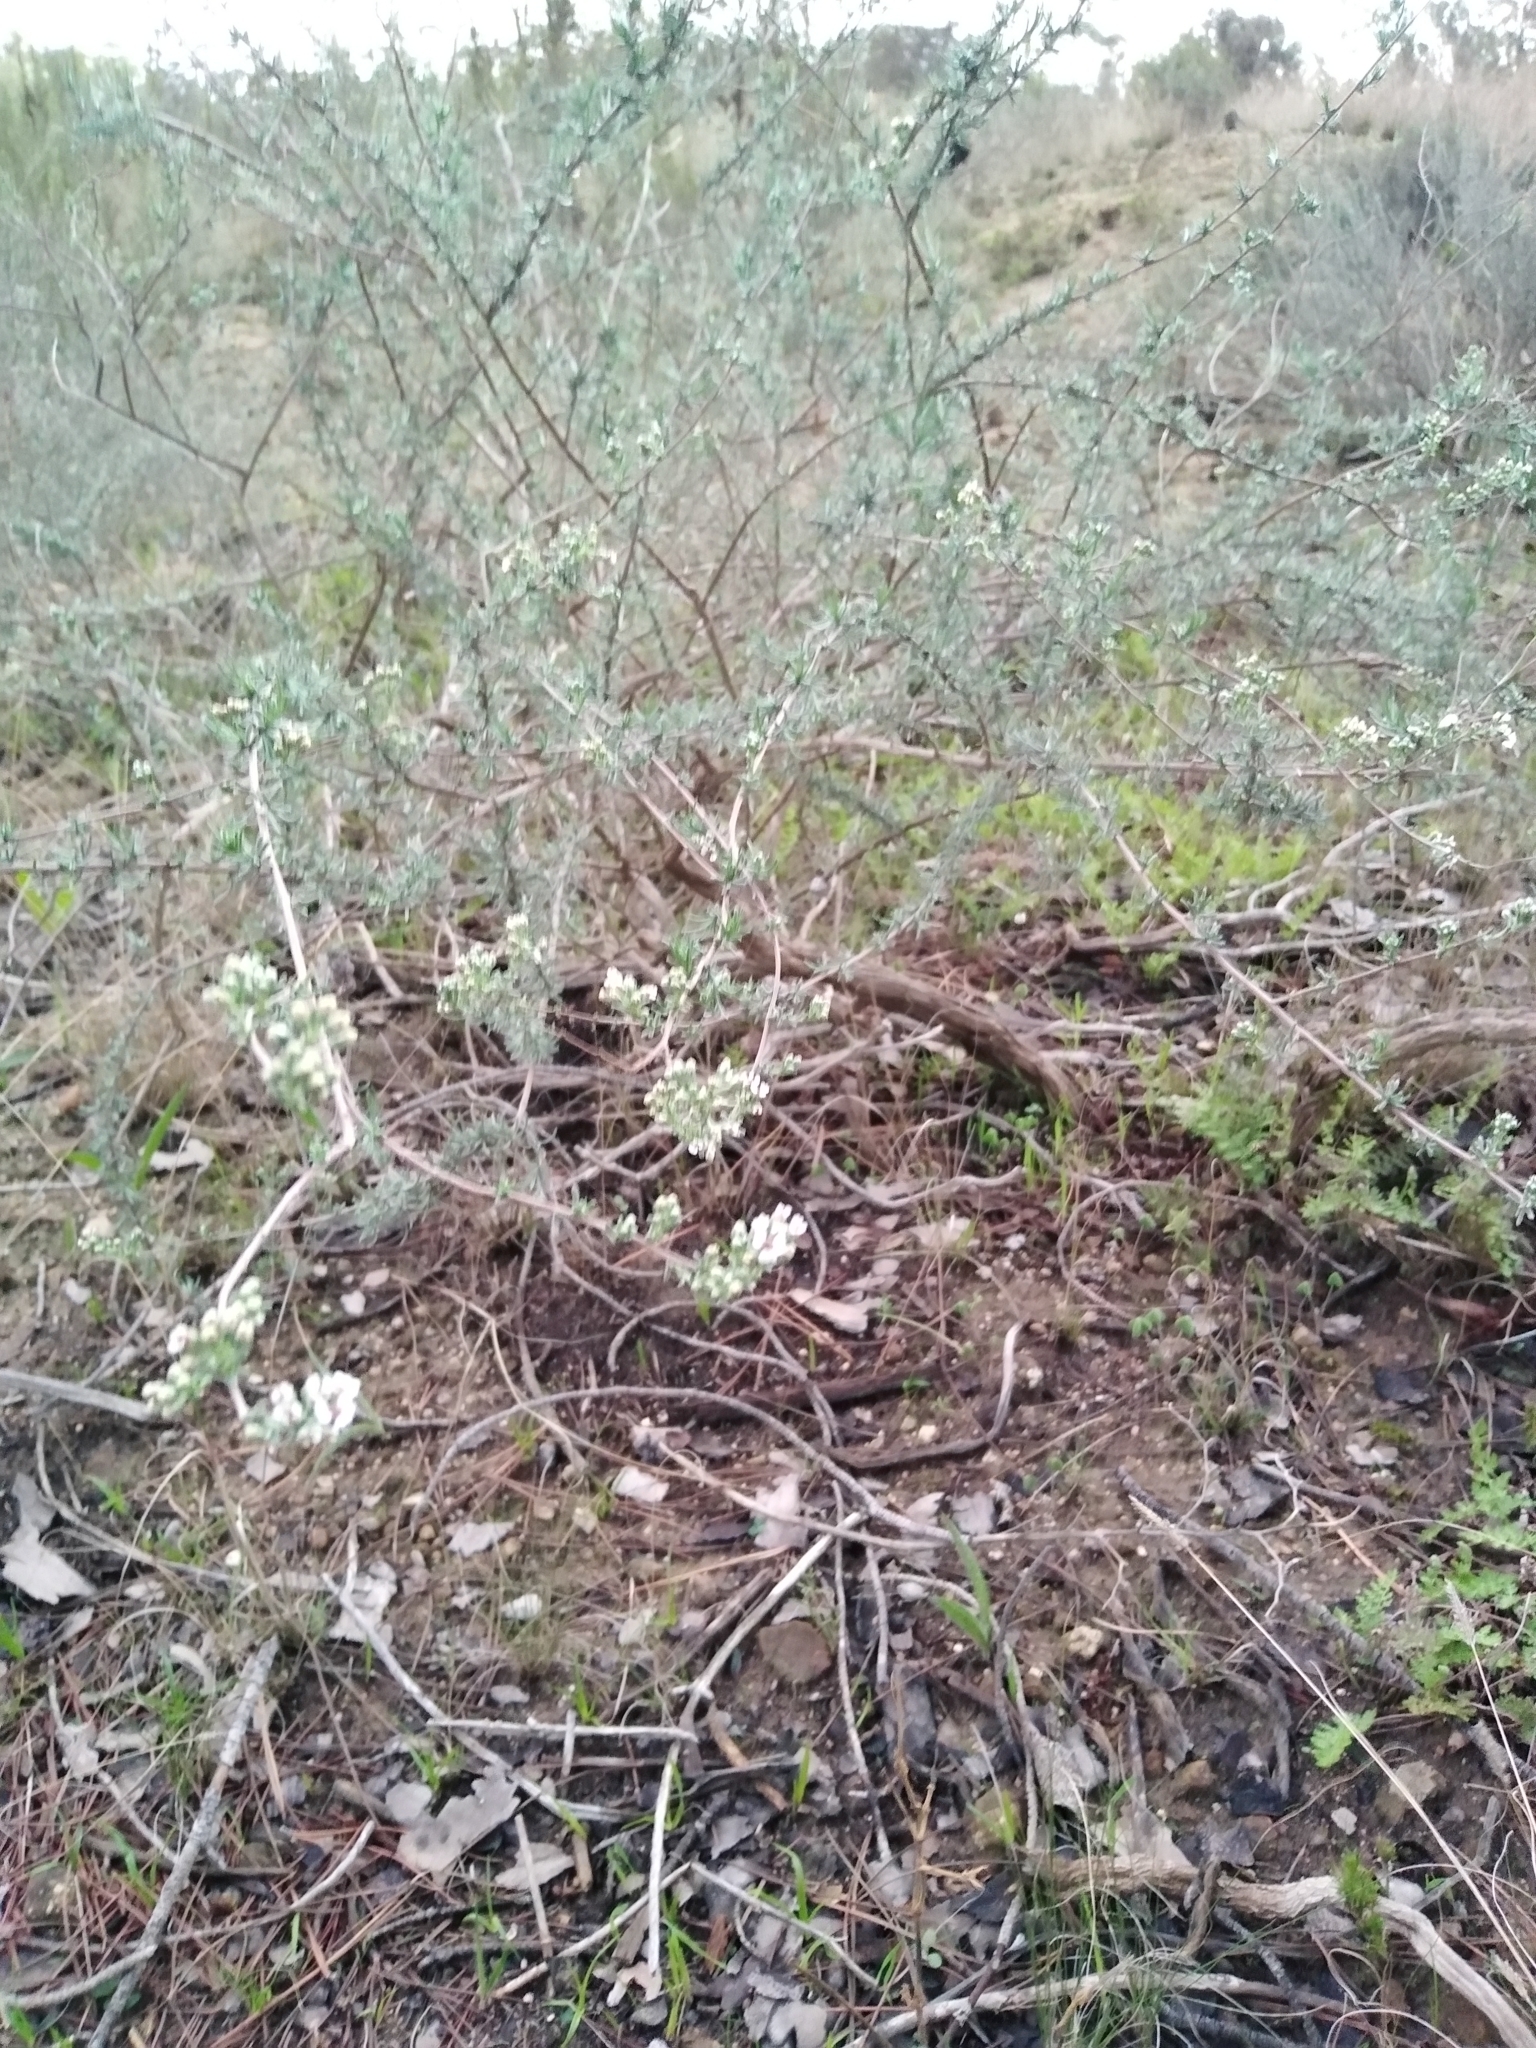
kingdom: Plantae
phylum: Tracheophyta
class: Magnoliopsida
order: Asterales
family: Asteraceae
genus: Eriocephalus
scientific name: Eriocephalus africanus
